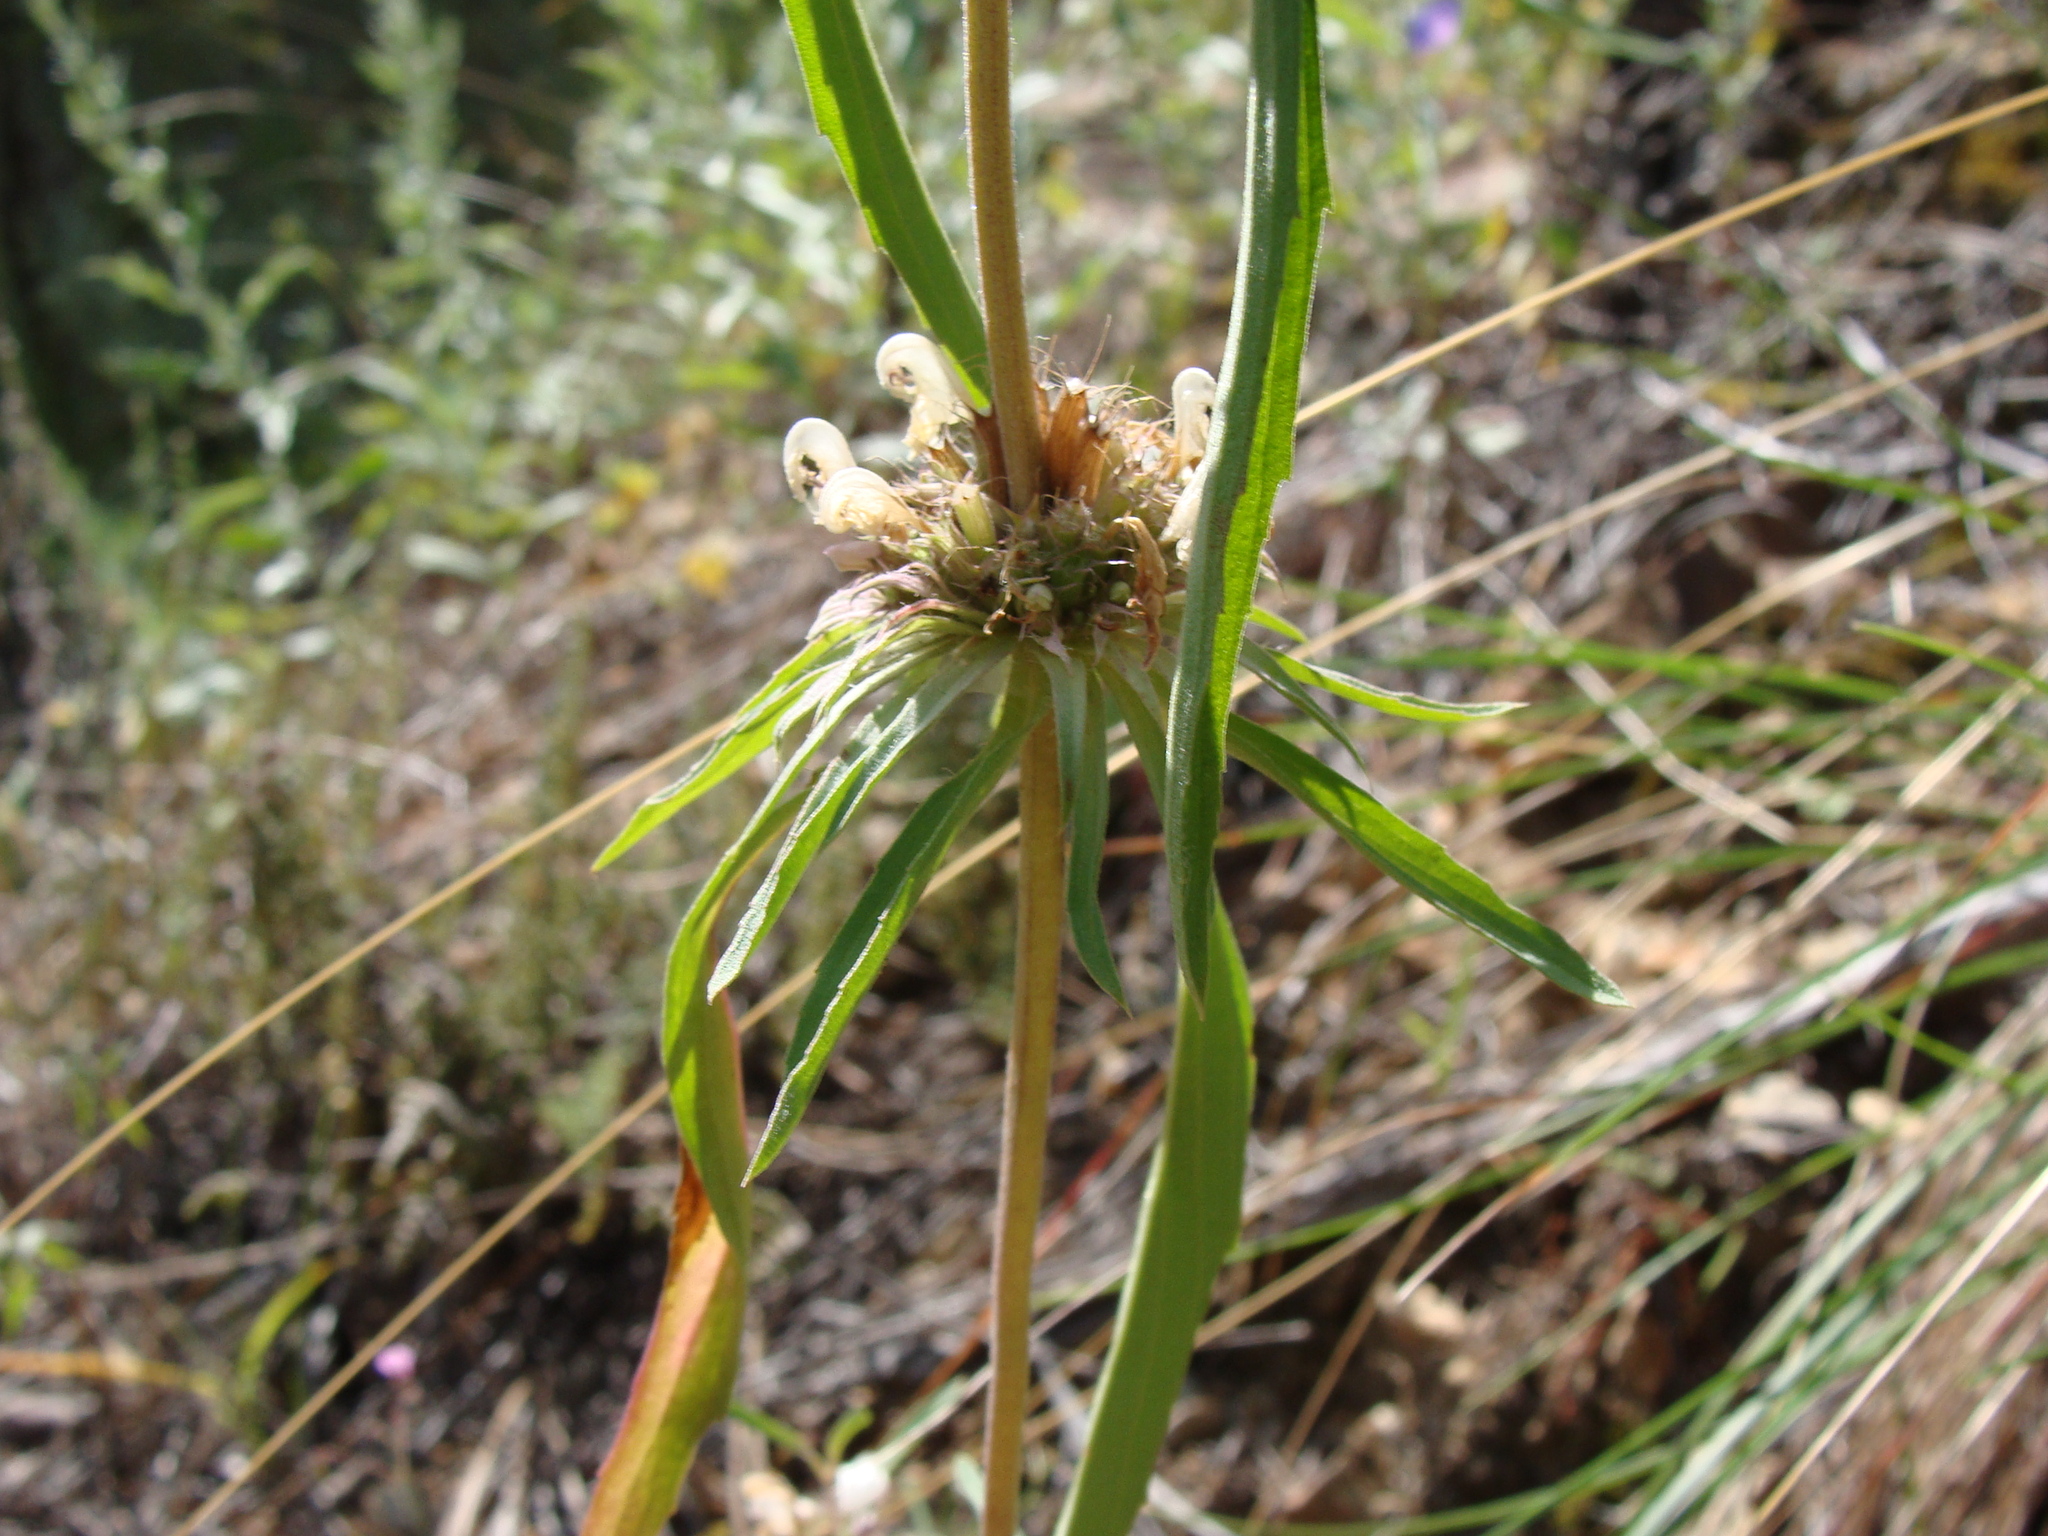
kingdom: Plantae
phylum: Tracheophyta
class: Magnoliopsida
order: Lamiales
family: Lamiaceae
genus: Monarda
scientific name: Monarda citriodora
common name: Lemon beebalm
